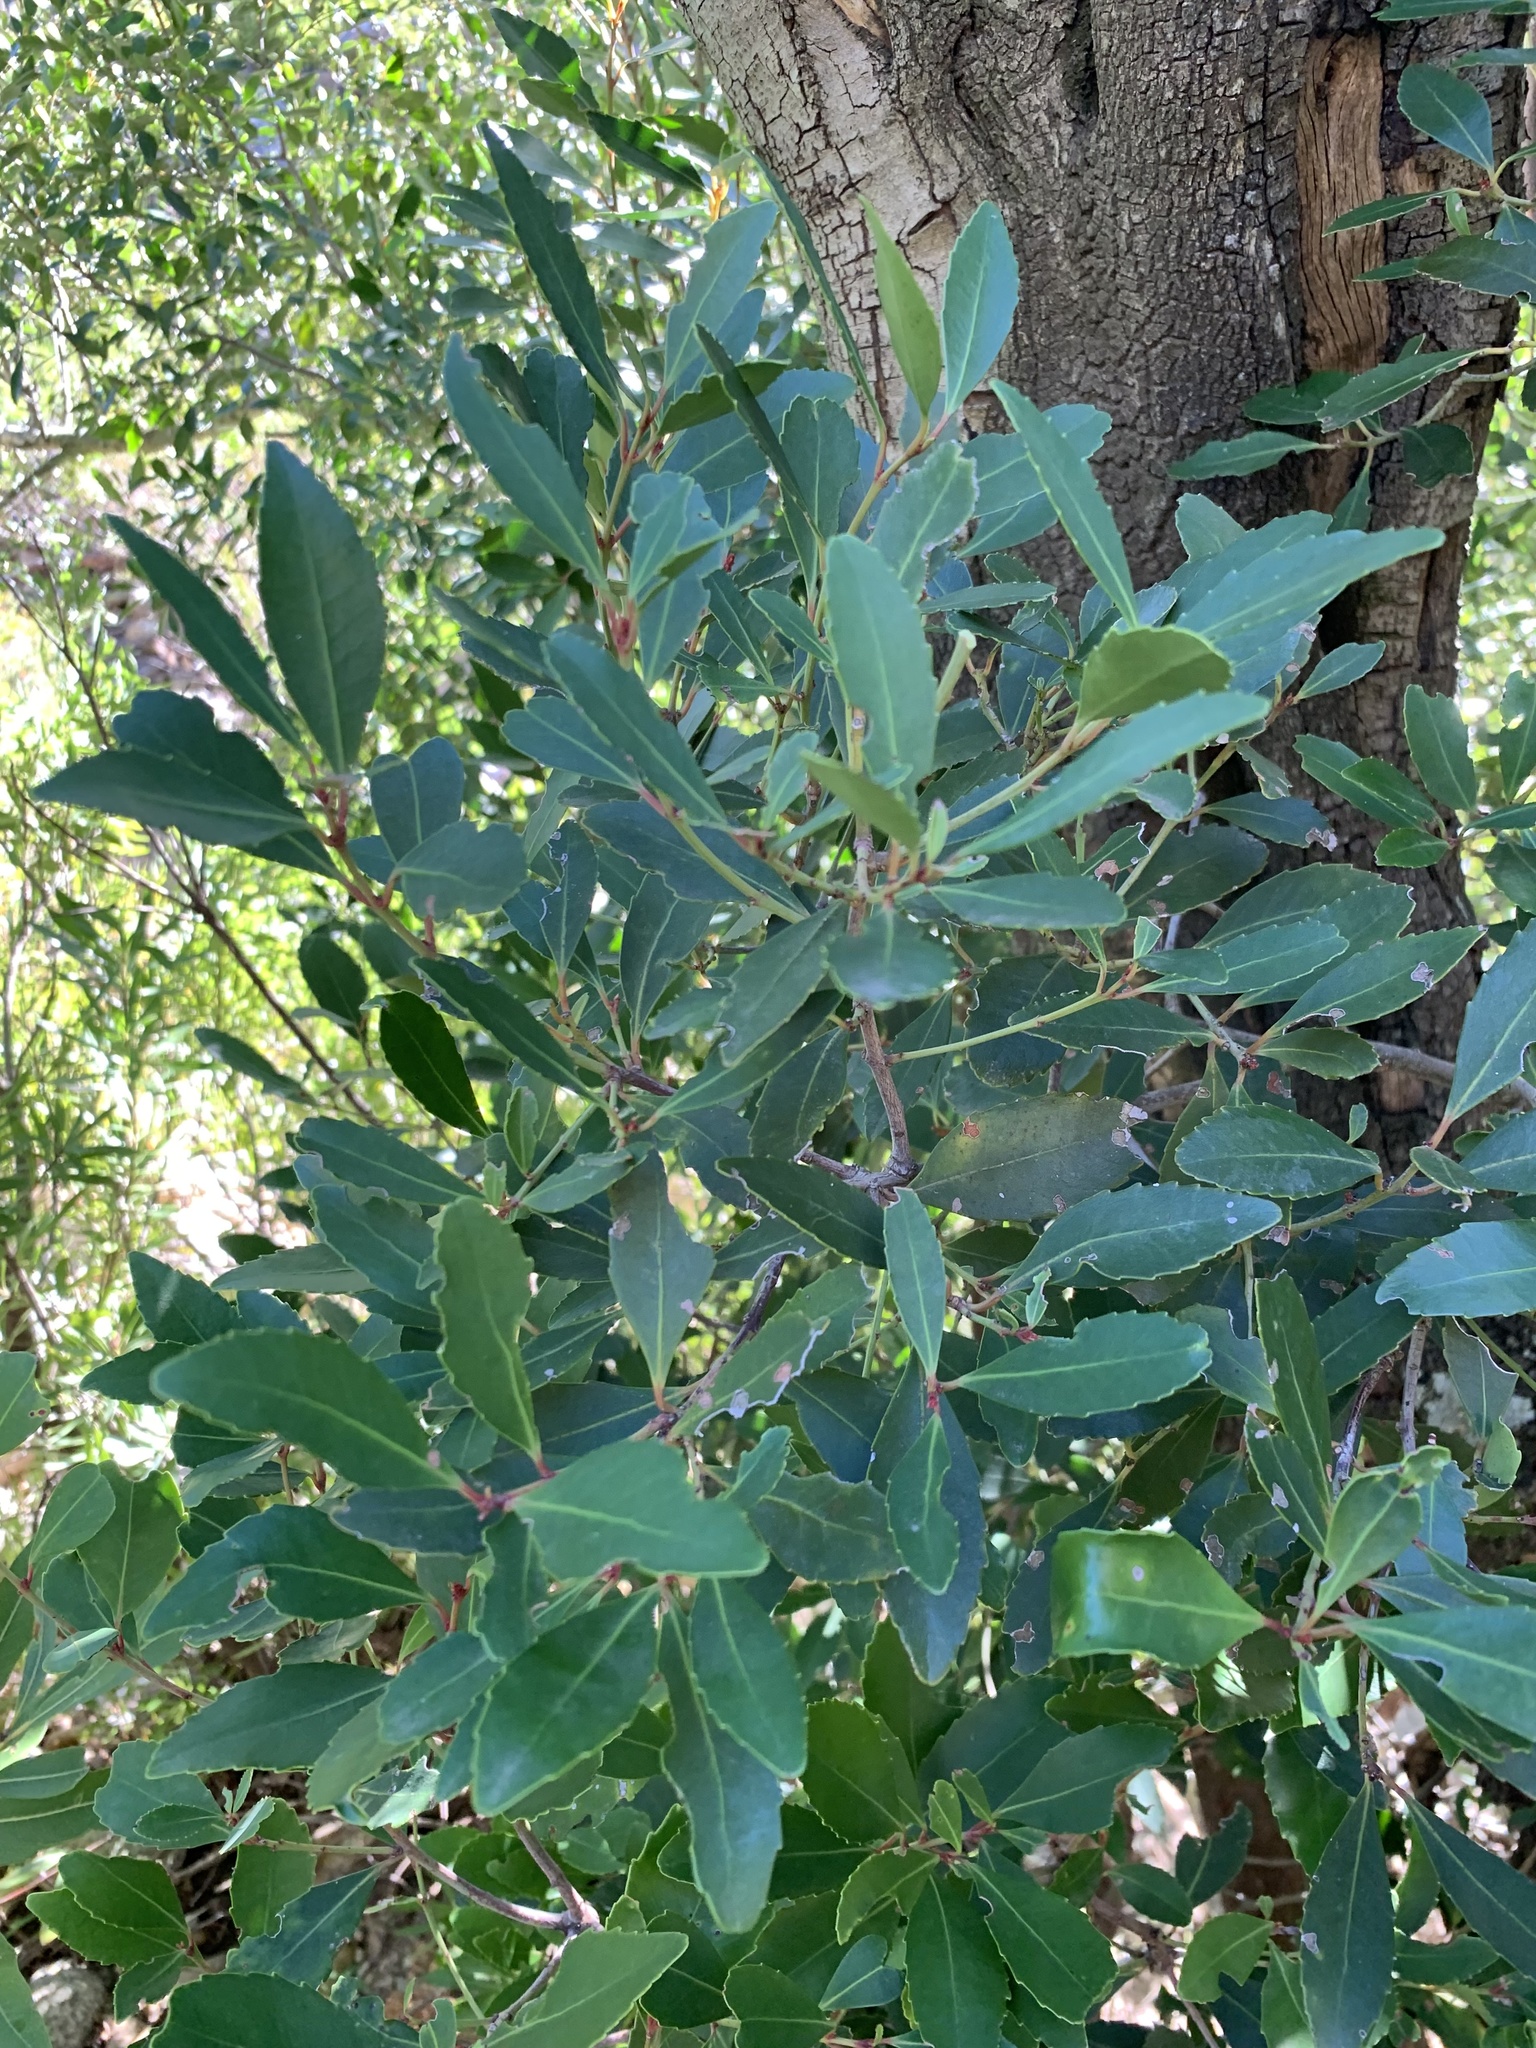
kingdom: Plantae
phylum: Tracheophyta
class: Magnoliopsida
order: Celastrales
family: Celastraceae
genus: Elaeodendron
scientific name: Elaeodendron schinoides
